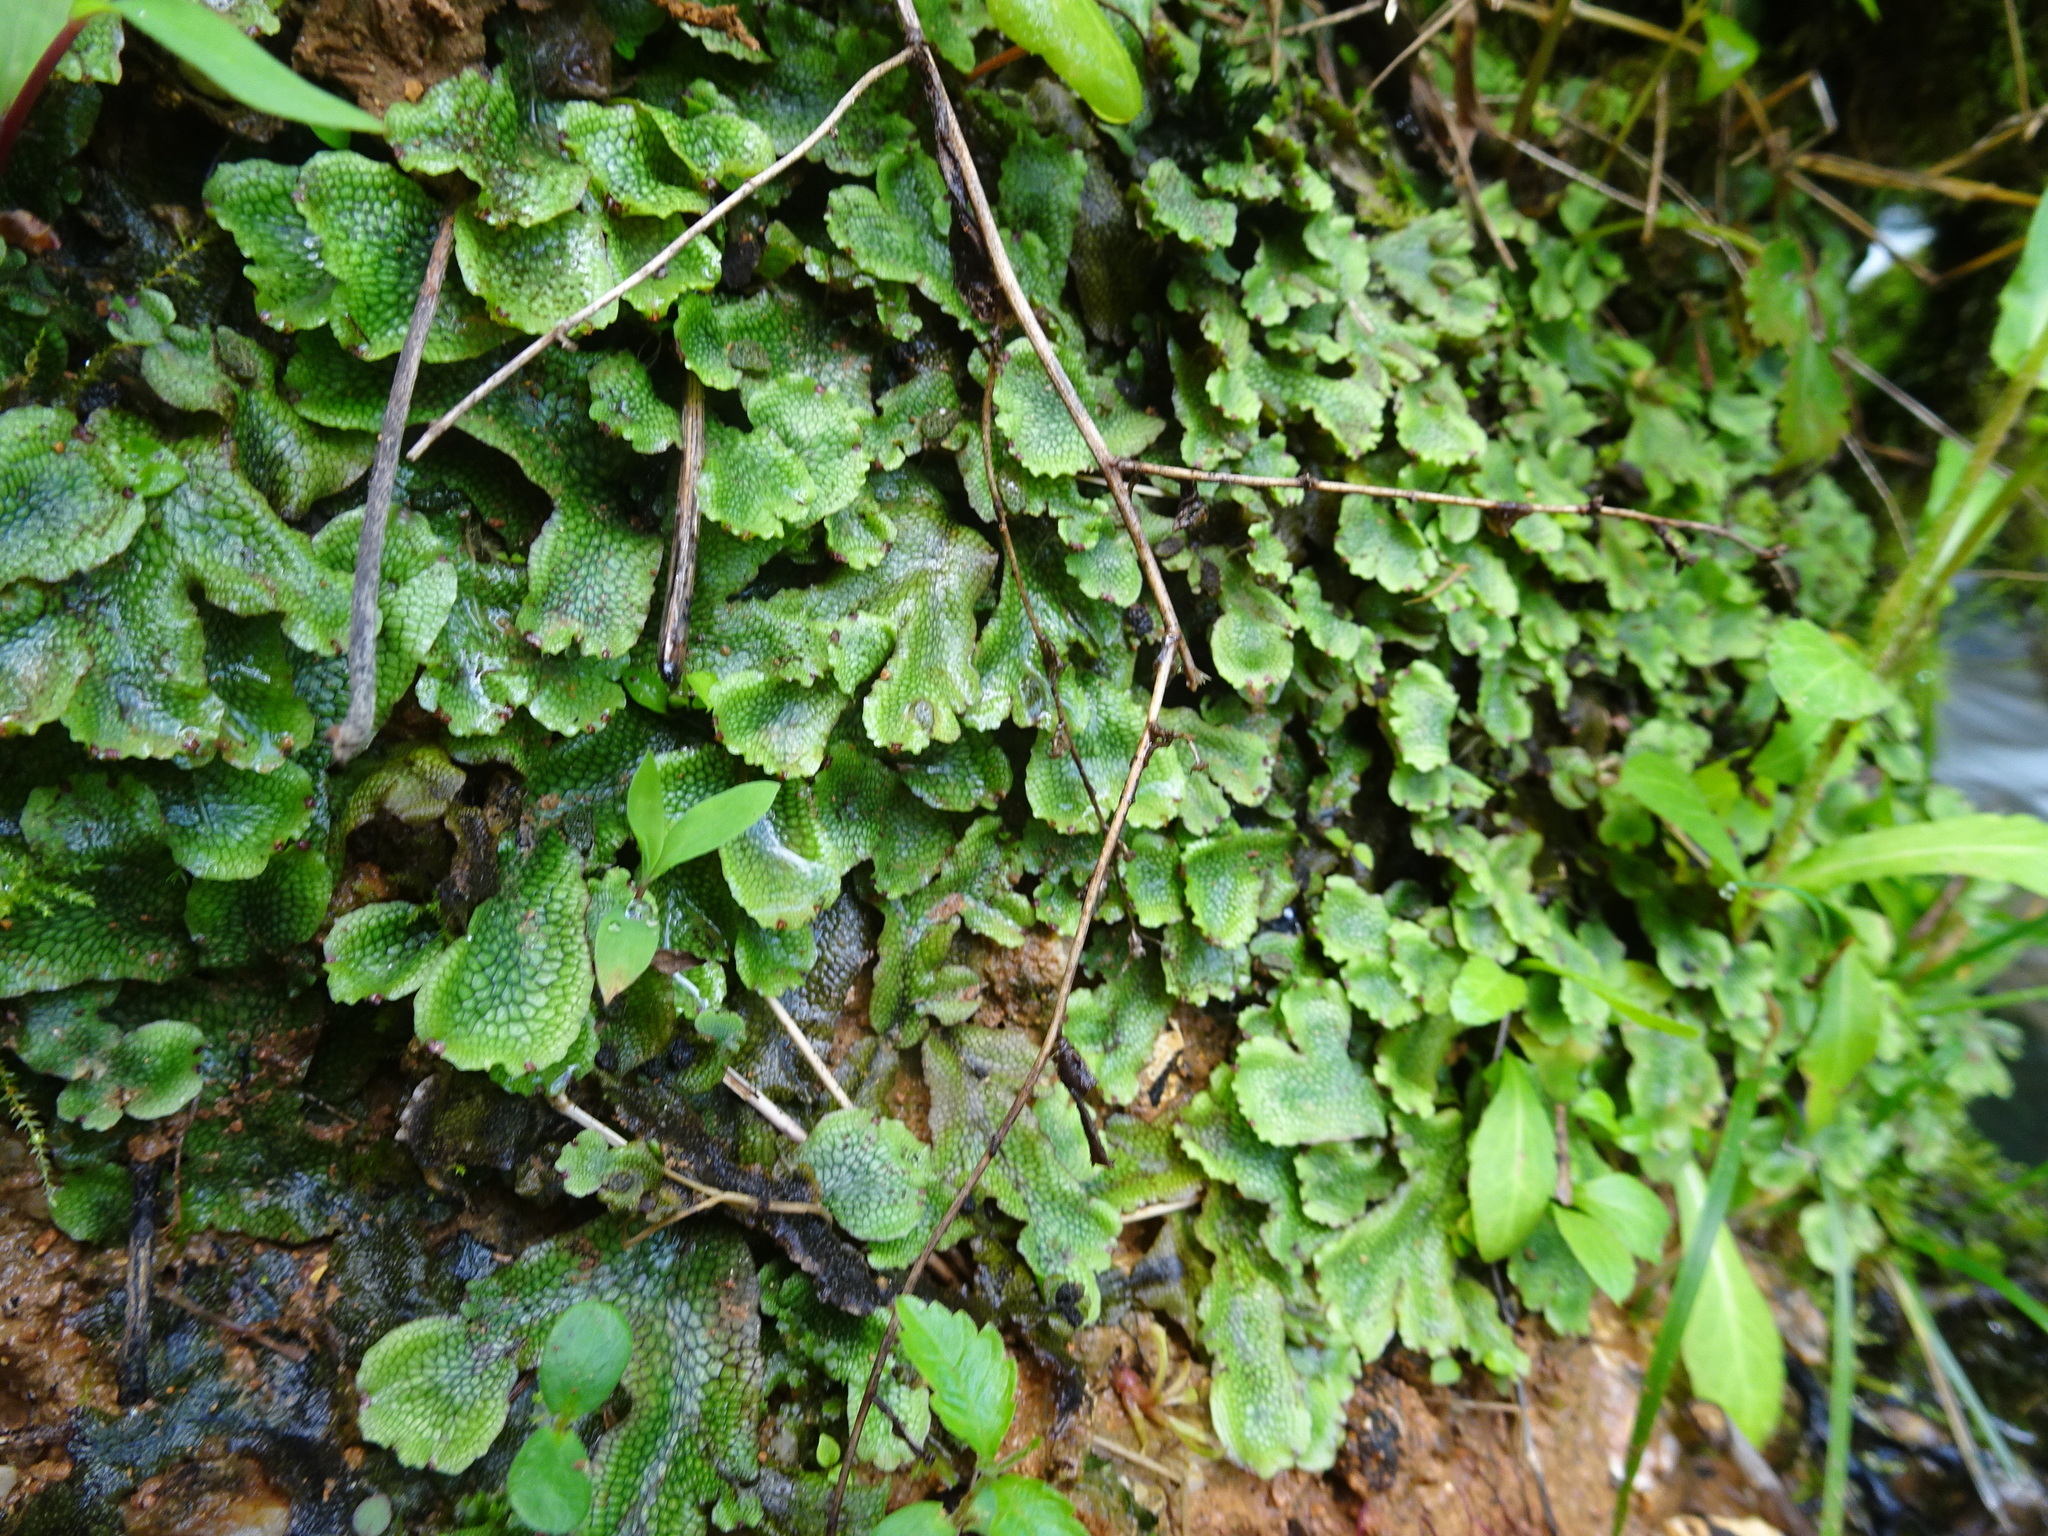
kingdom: Plantae
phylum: Marchantiophyta
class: Marchantiopsida
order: Marchantiales
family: Conocephalaceae
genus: Conocephalum
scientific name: Conocephalum salebrosum
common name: Cat-tongue liverwort
